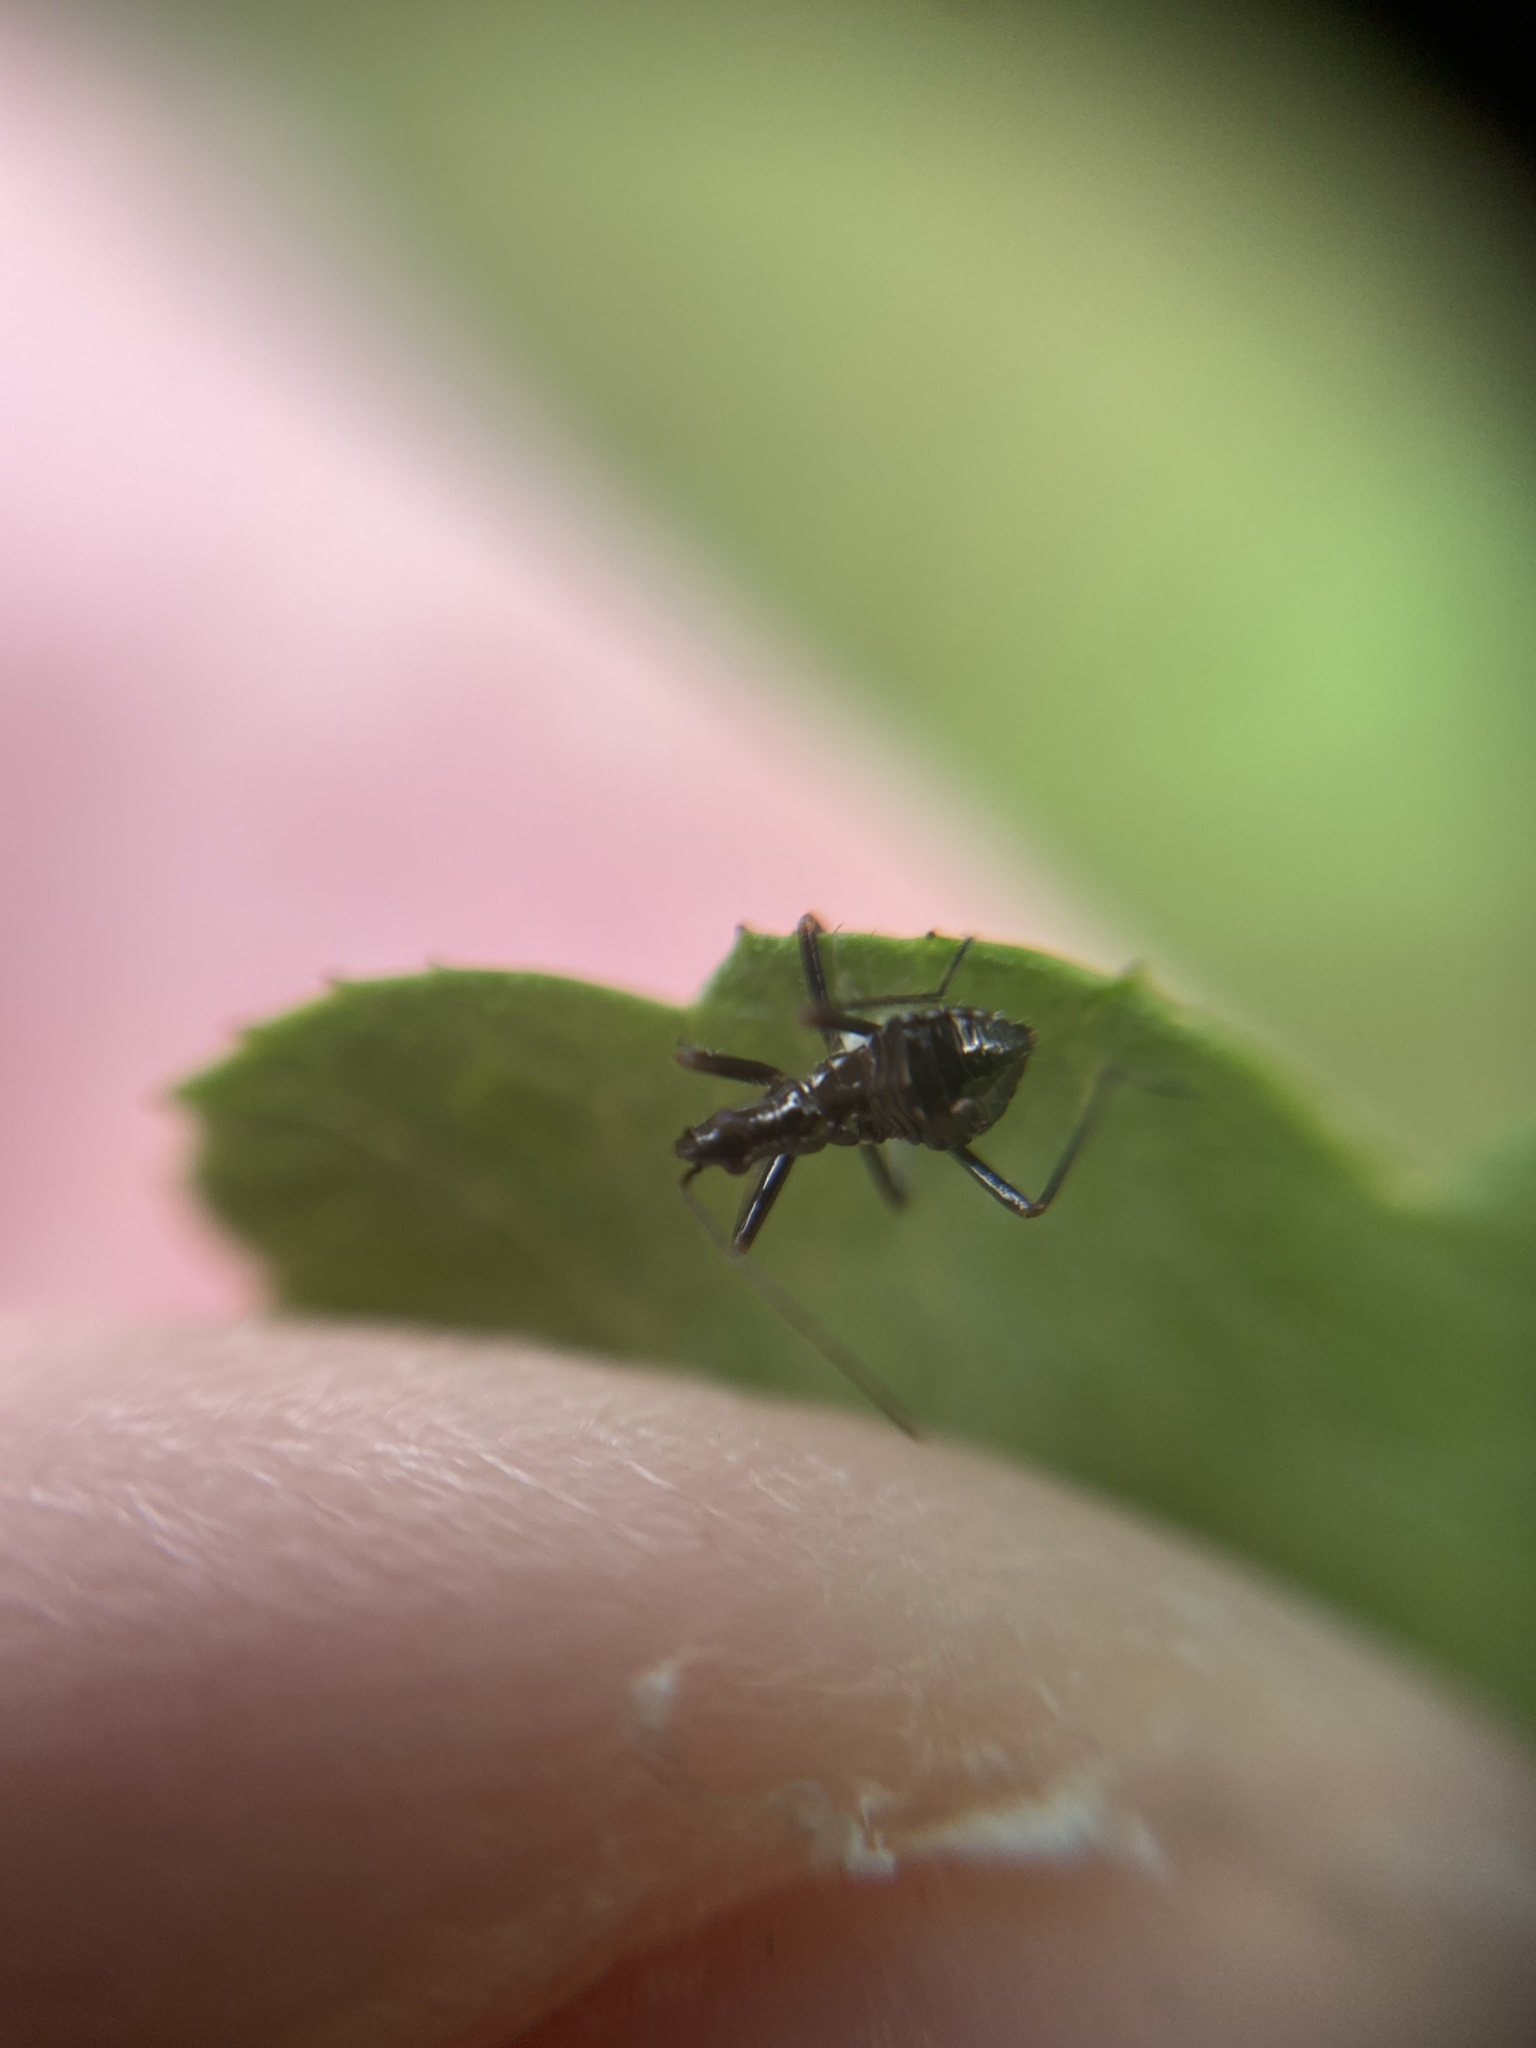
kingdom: Animalia
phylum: Arthropoda
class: Insecta
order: Hemiptera
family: Nabidae
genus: Himacerus
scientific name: Himacerus apterus
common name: Tree damsel bug
